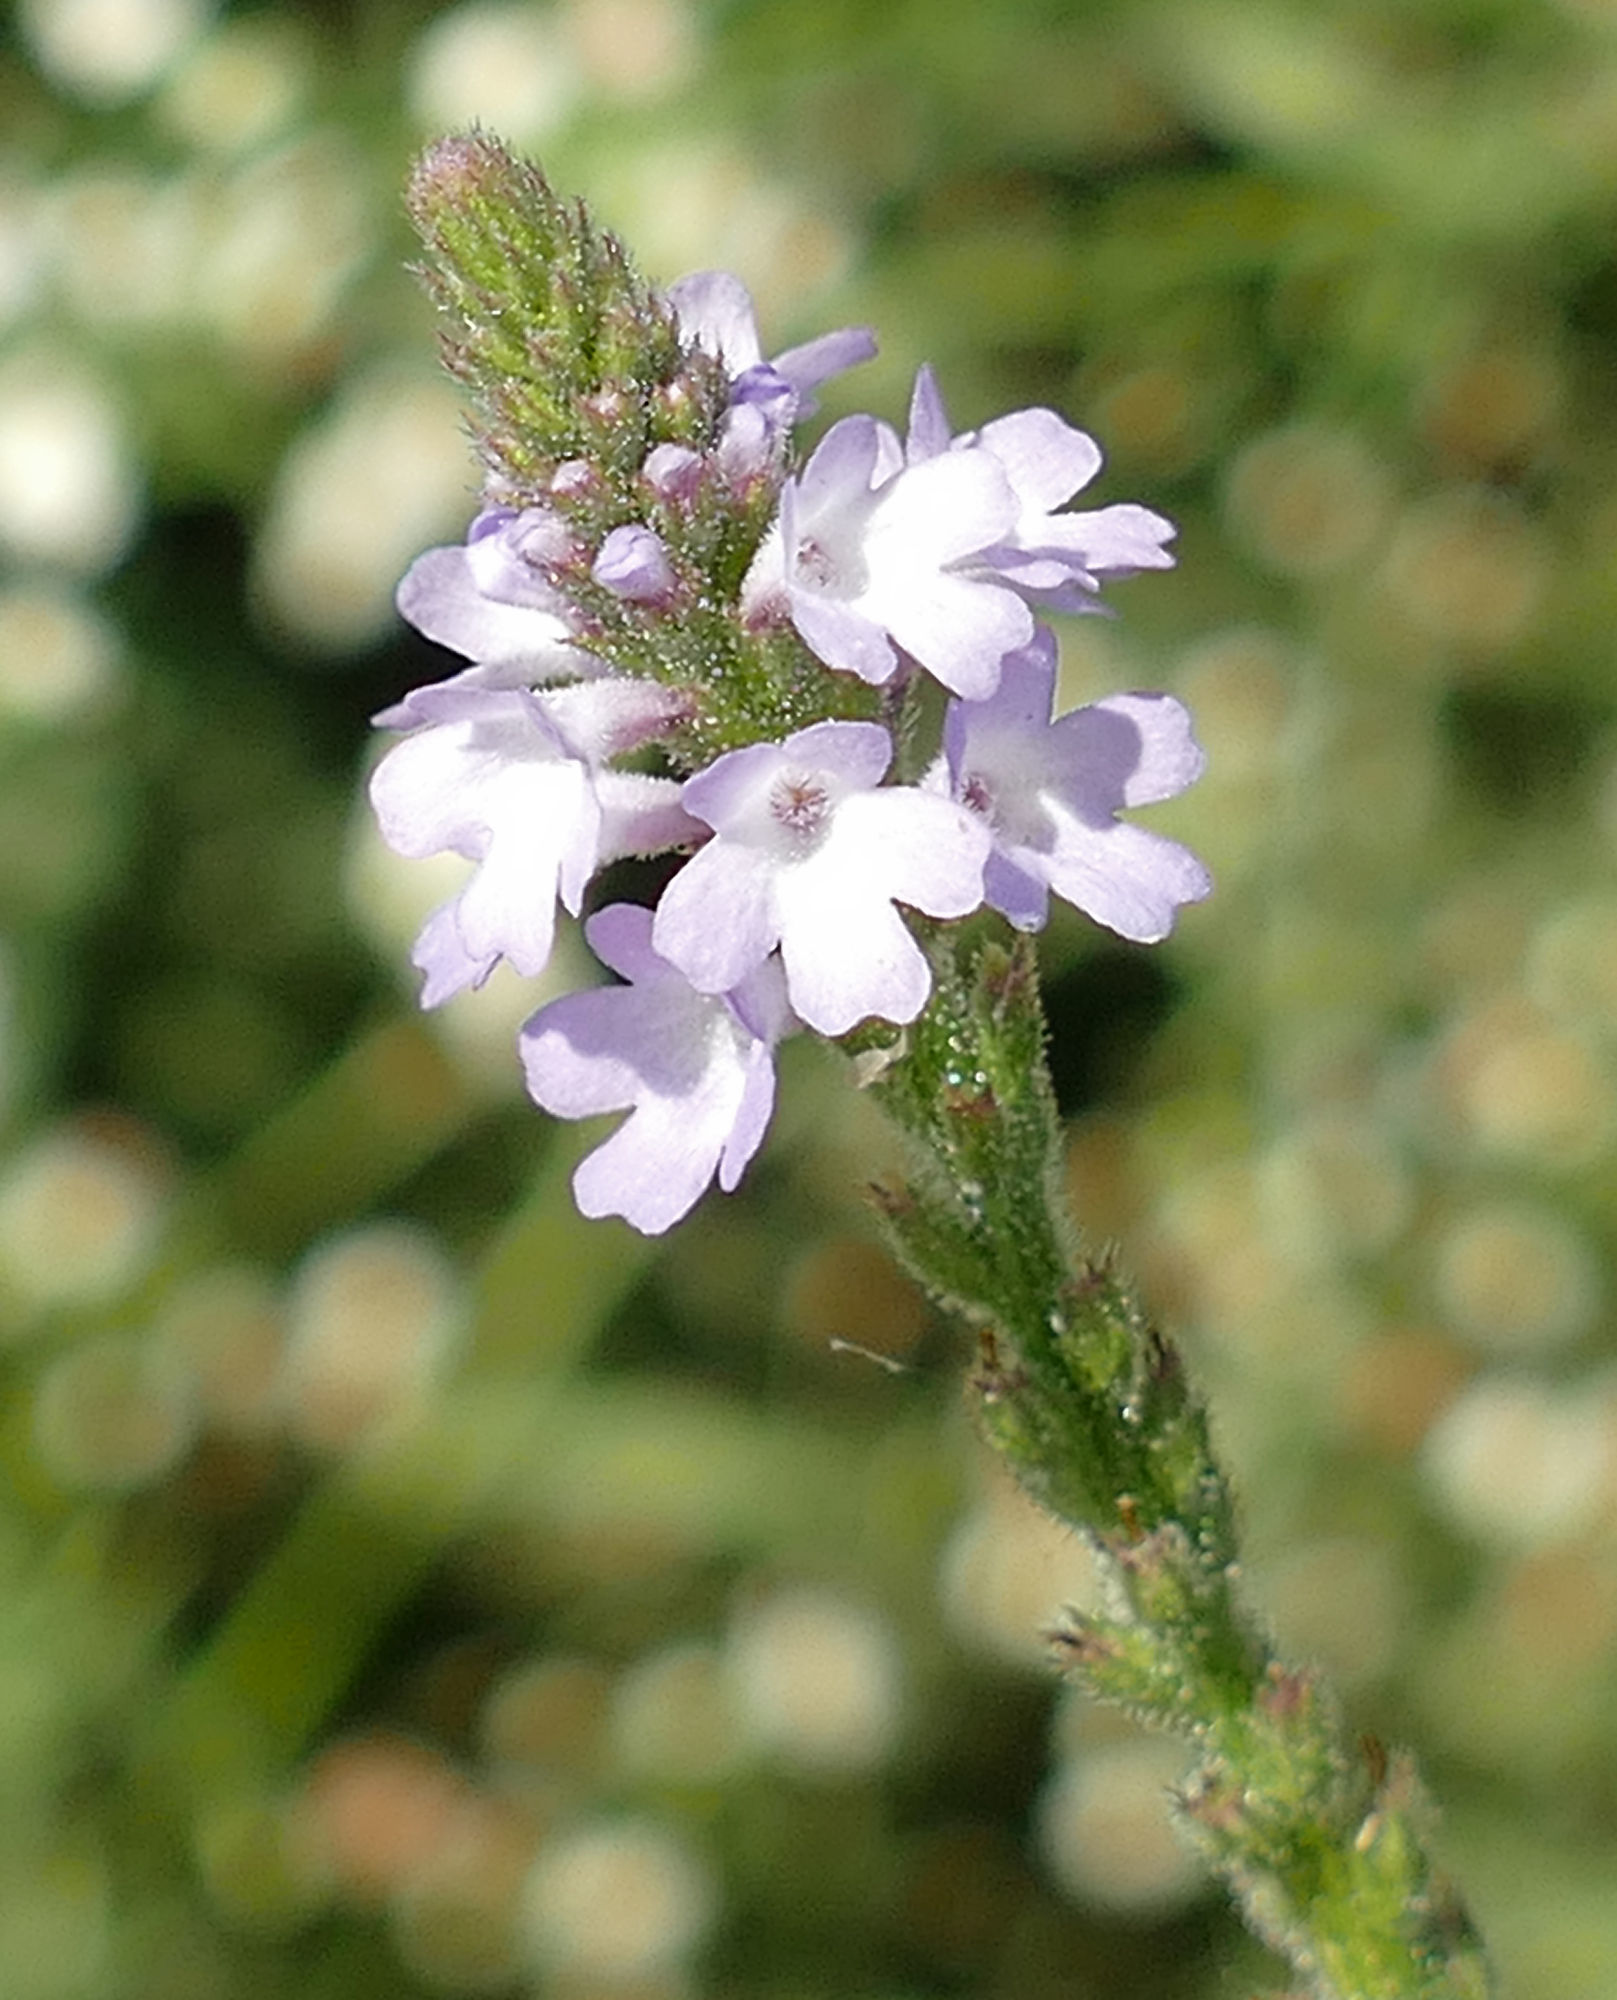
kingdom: Plantae
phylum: Tracheophyta
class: Magnoliopsida
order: Lamiales
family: Verbenaceae
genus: Verbena
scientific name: Verbena xutha
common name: Gulf vervain
